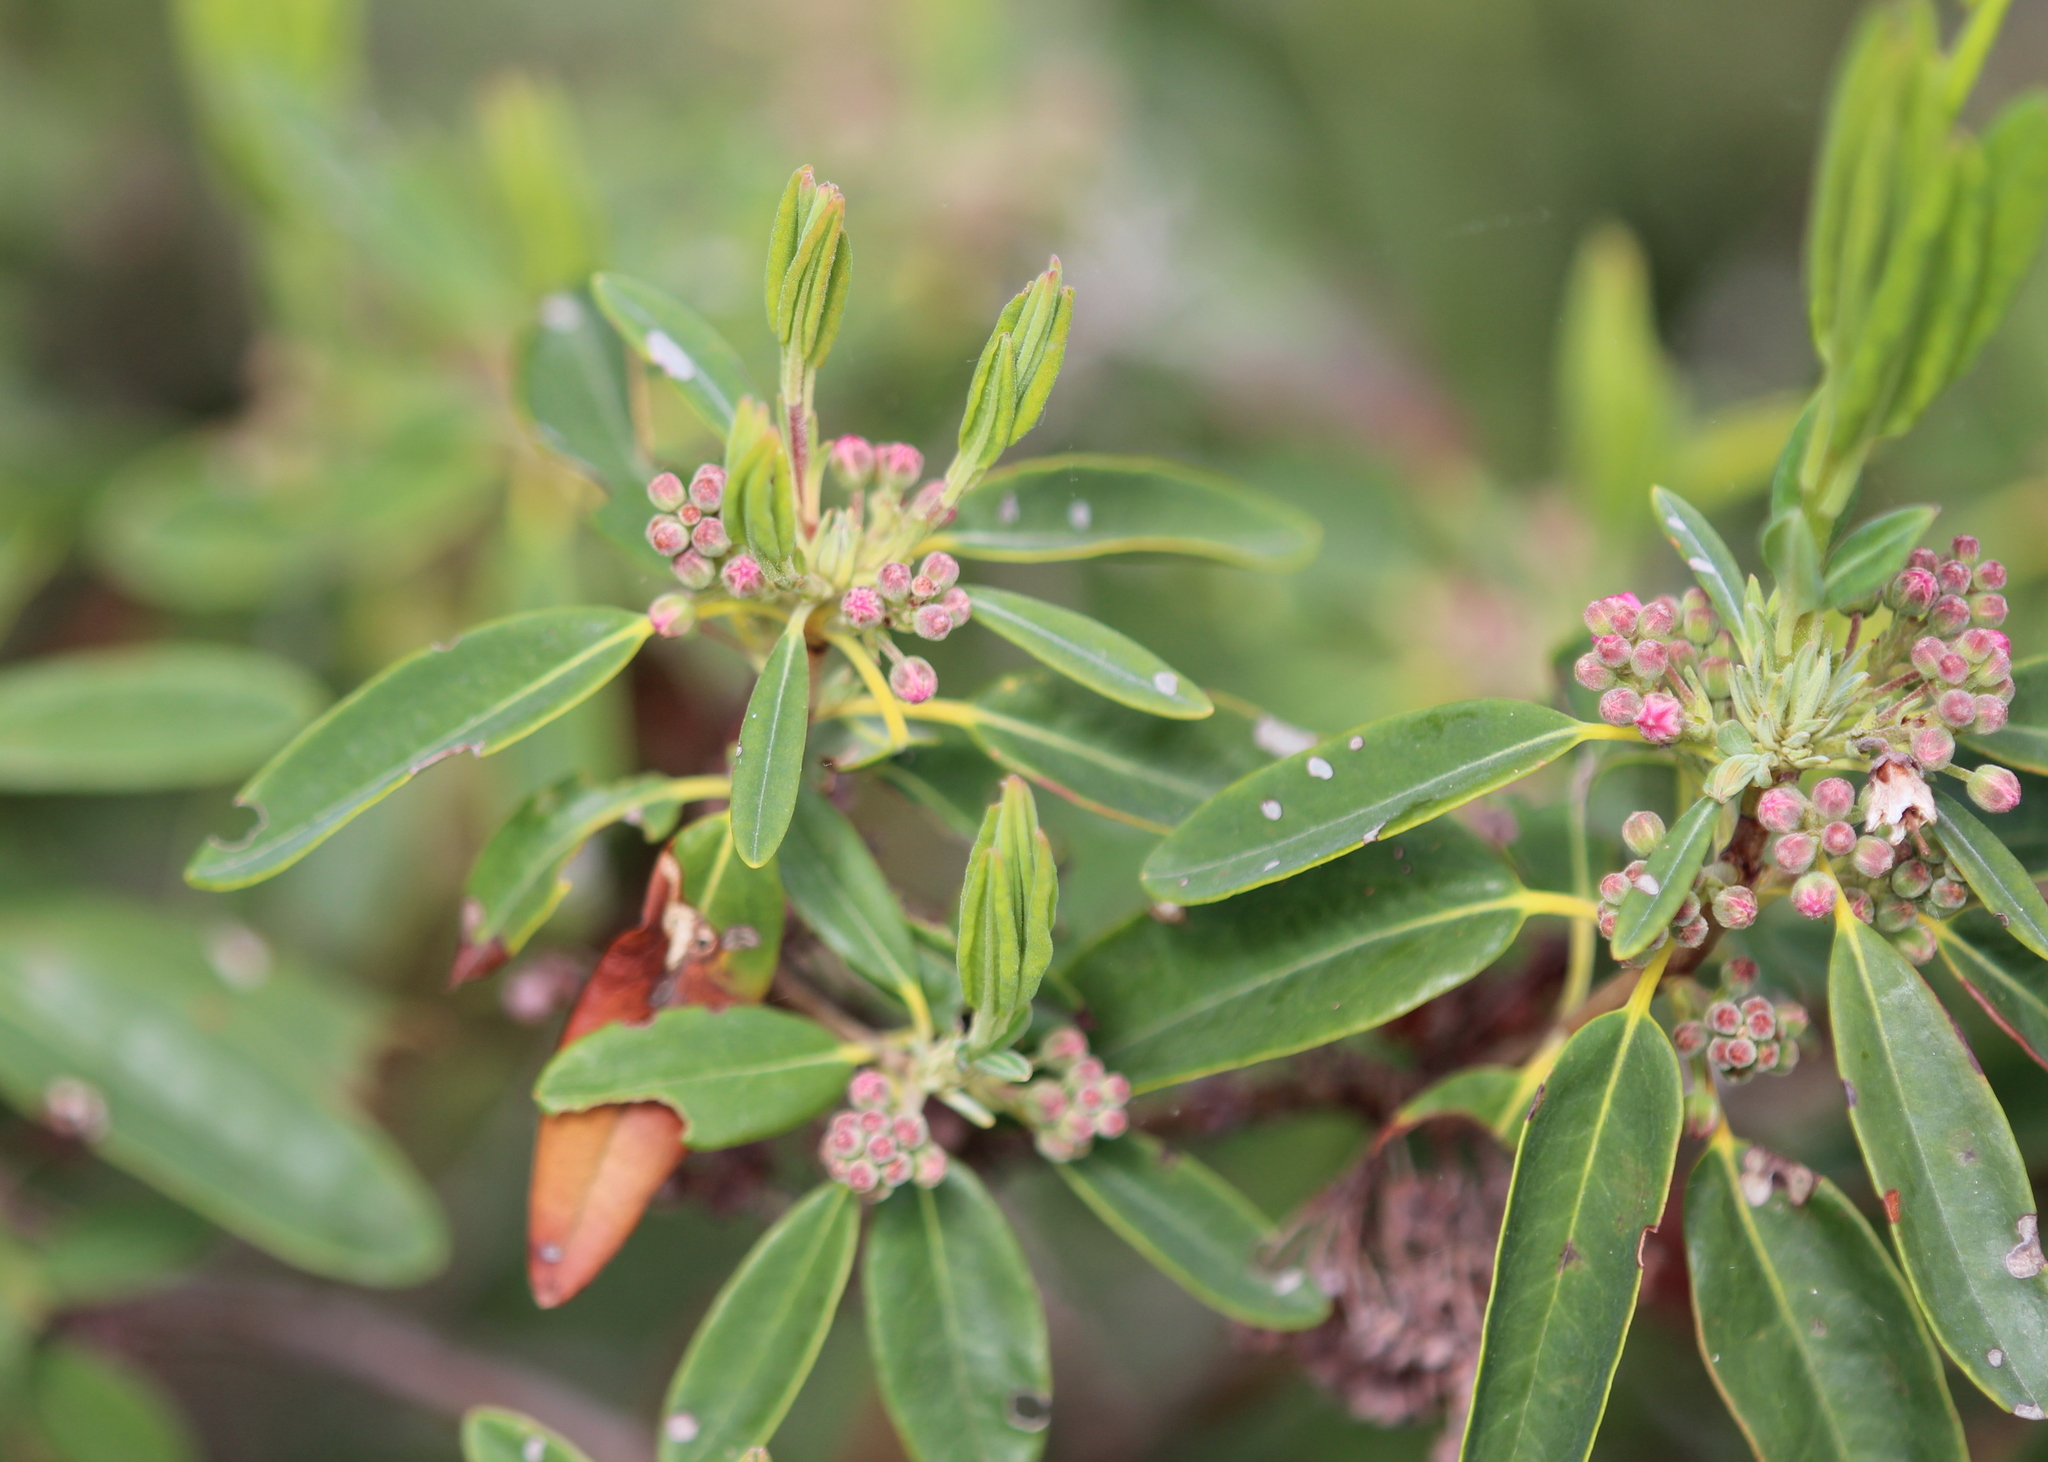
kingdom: Plantae
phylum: Tracheophyta
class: Magnoliopsida
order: Ericales
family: Ericaceae
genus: Kalmia
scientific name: Kalmia angustifolia
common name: Sheep-laurel
